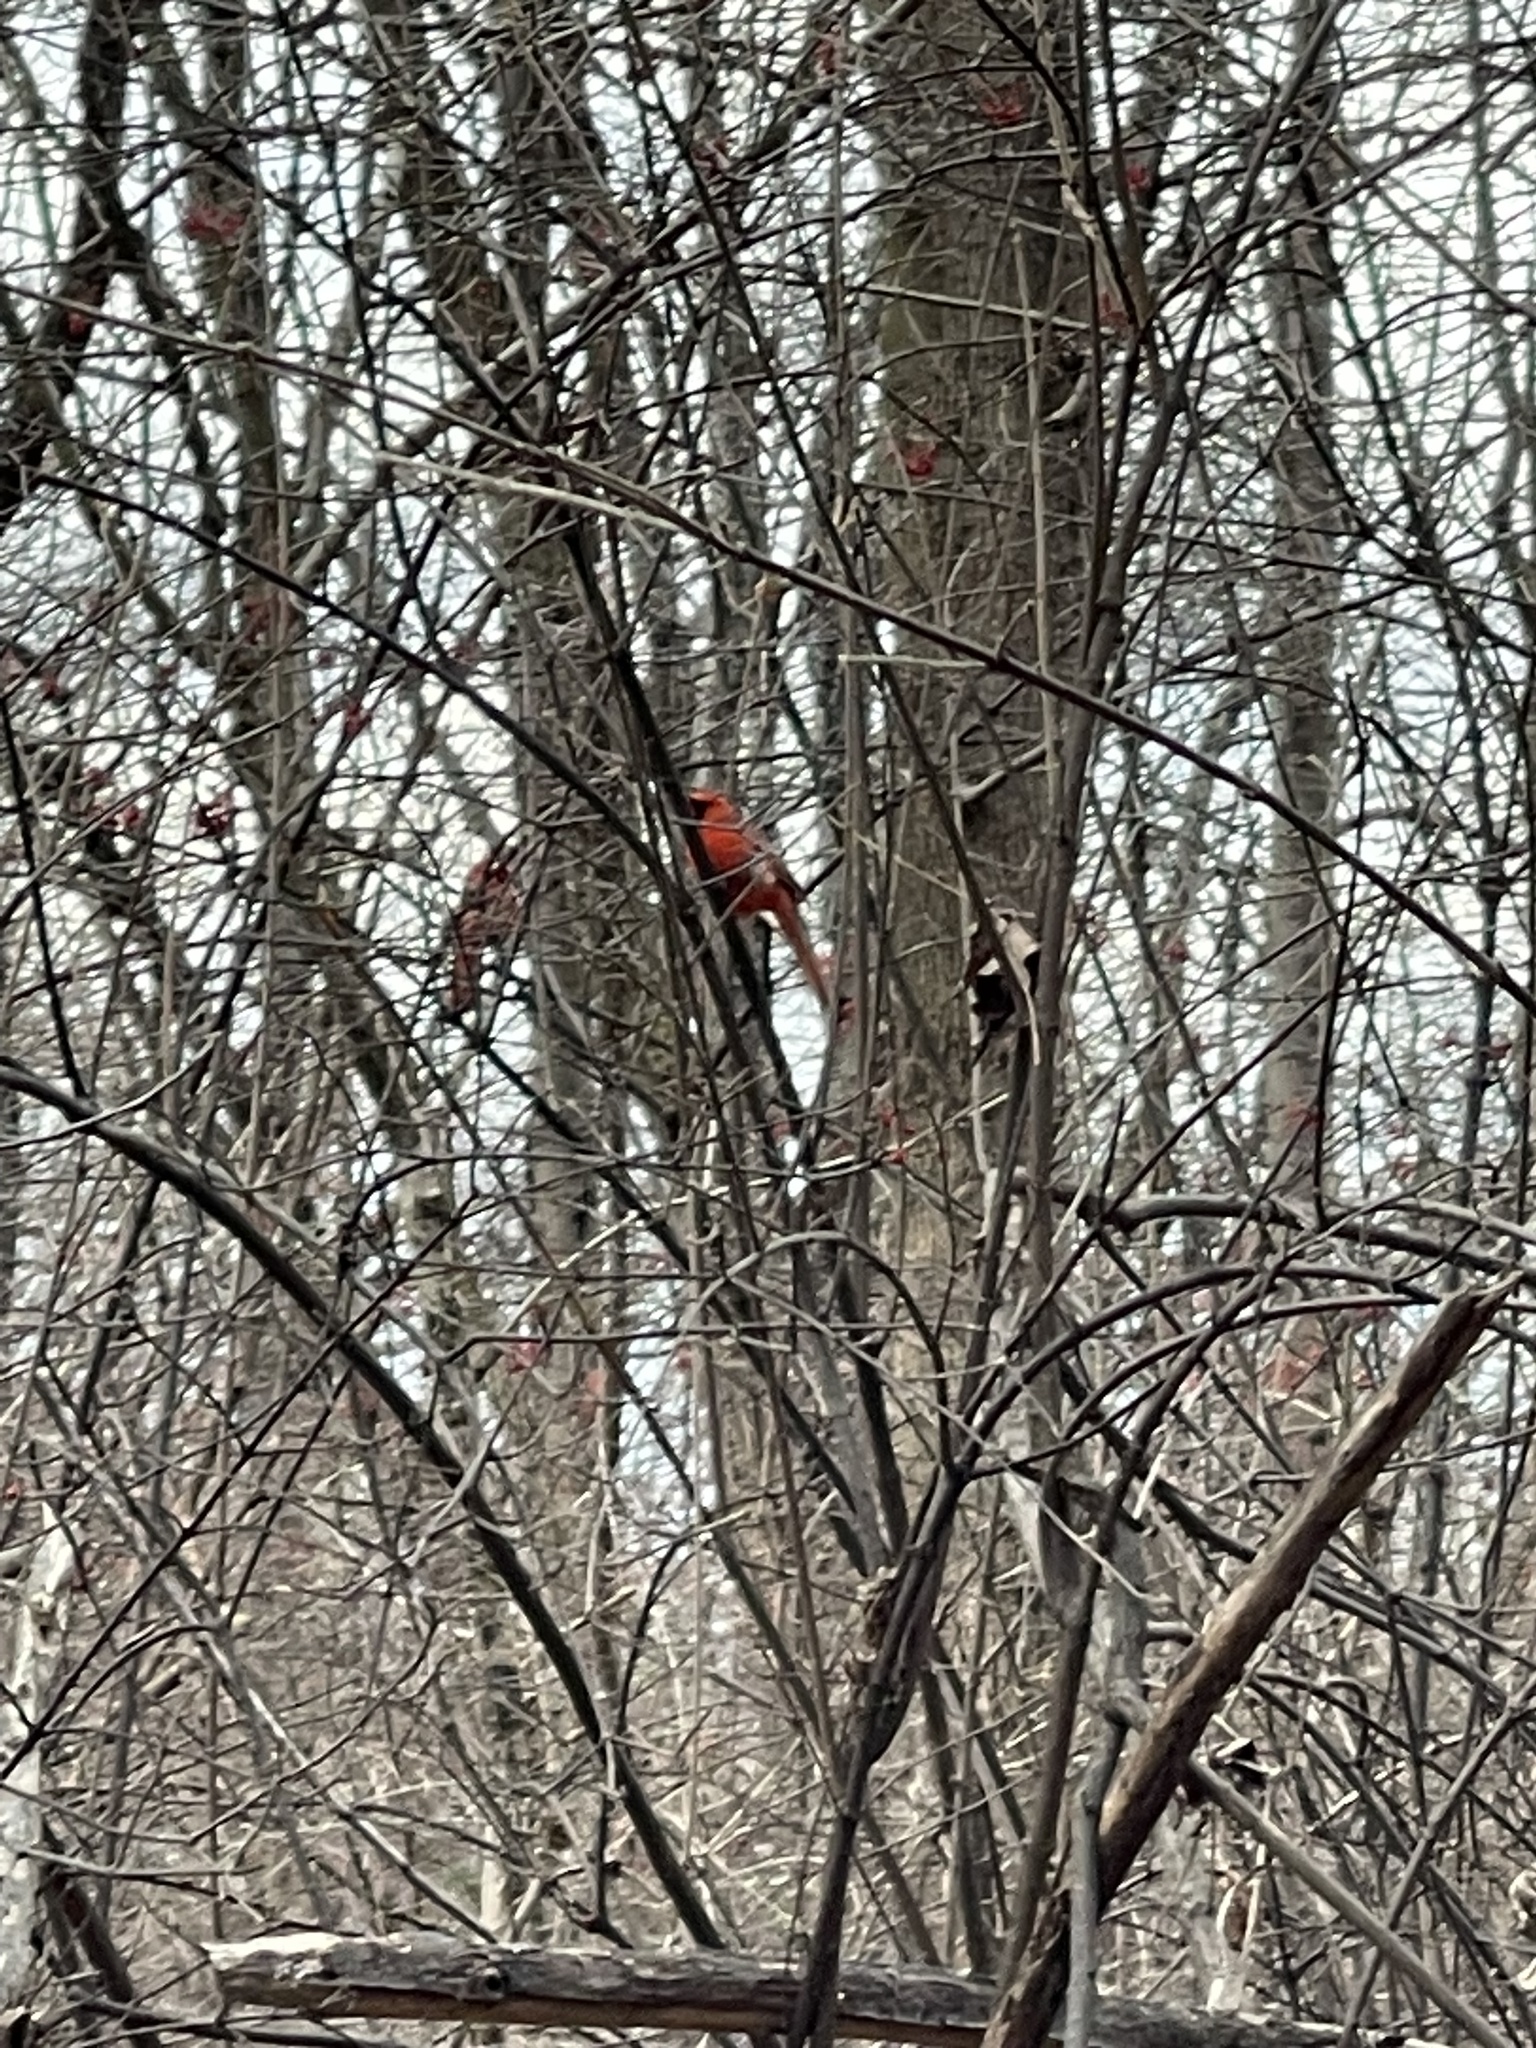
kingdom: Animalia
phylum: Chordata
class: Aves
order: Passeriformes
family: Cardinalidae
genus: Cardinalis
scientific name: Cardinalis cardinalis
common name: Northern cardinal
